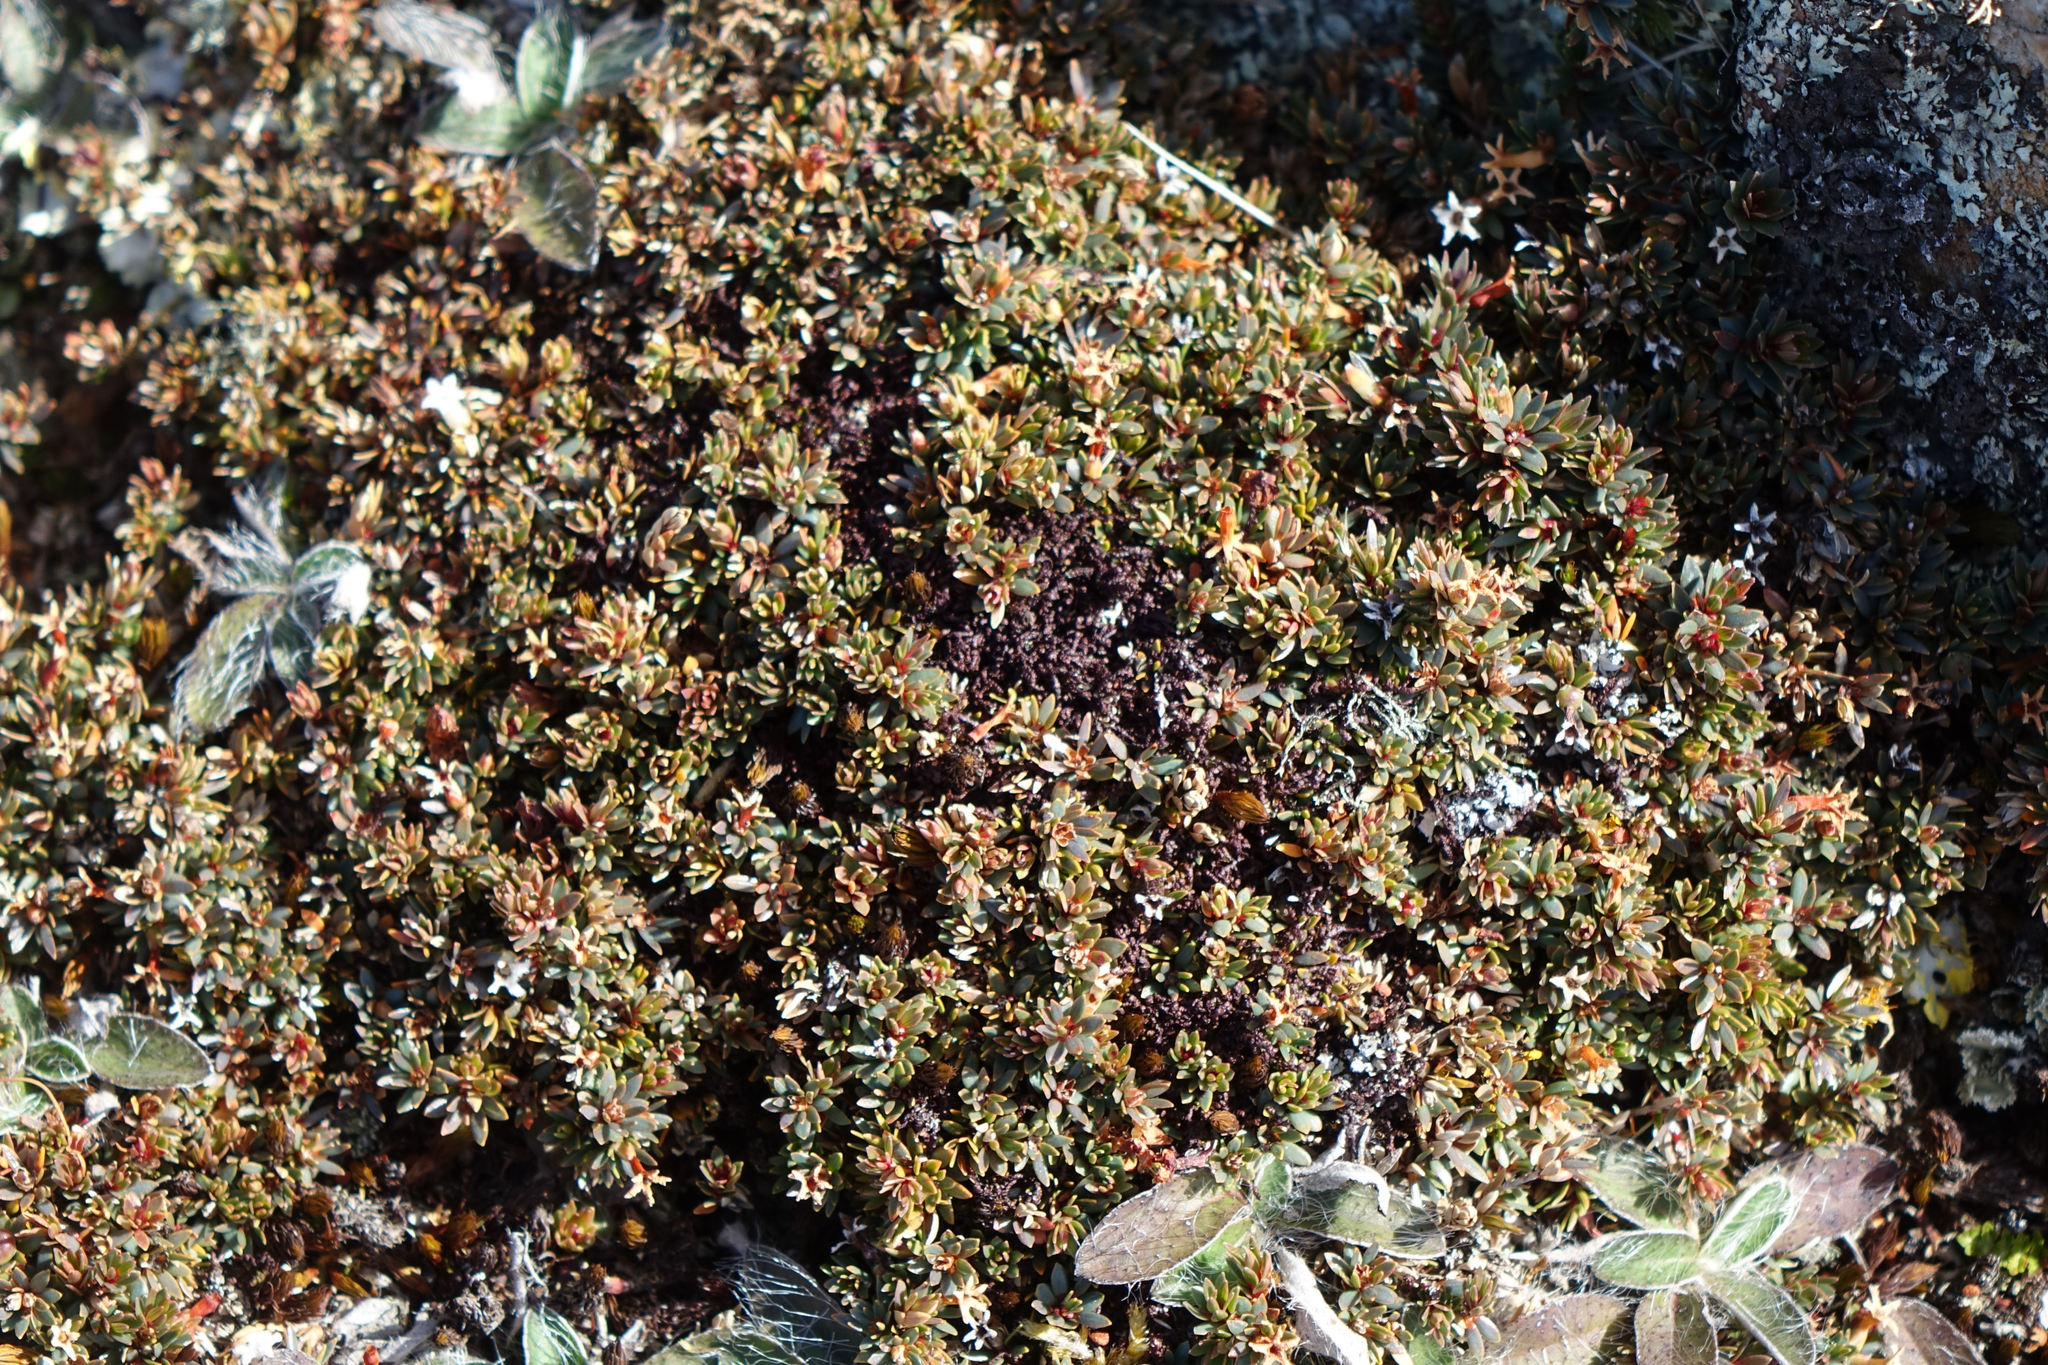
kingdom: Plantae
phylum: Tracheophyta
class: Magnoliopsida
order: Ericales
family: Ericaceae
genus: Pentachondra
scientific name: Pentachondra pumila
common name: Carpet-heath
